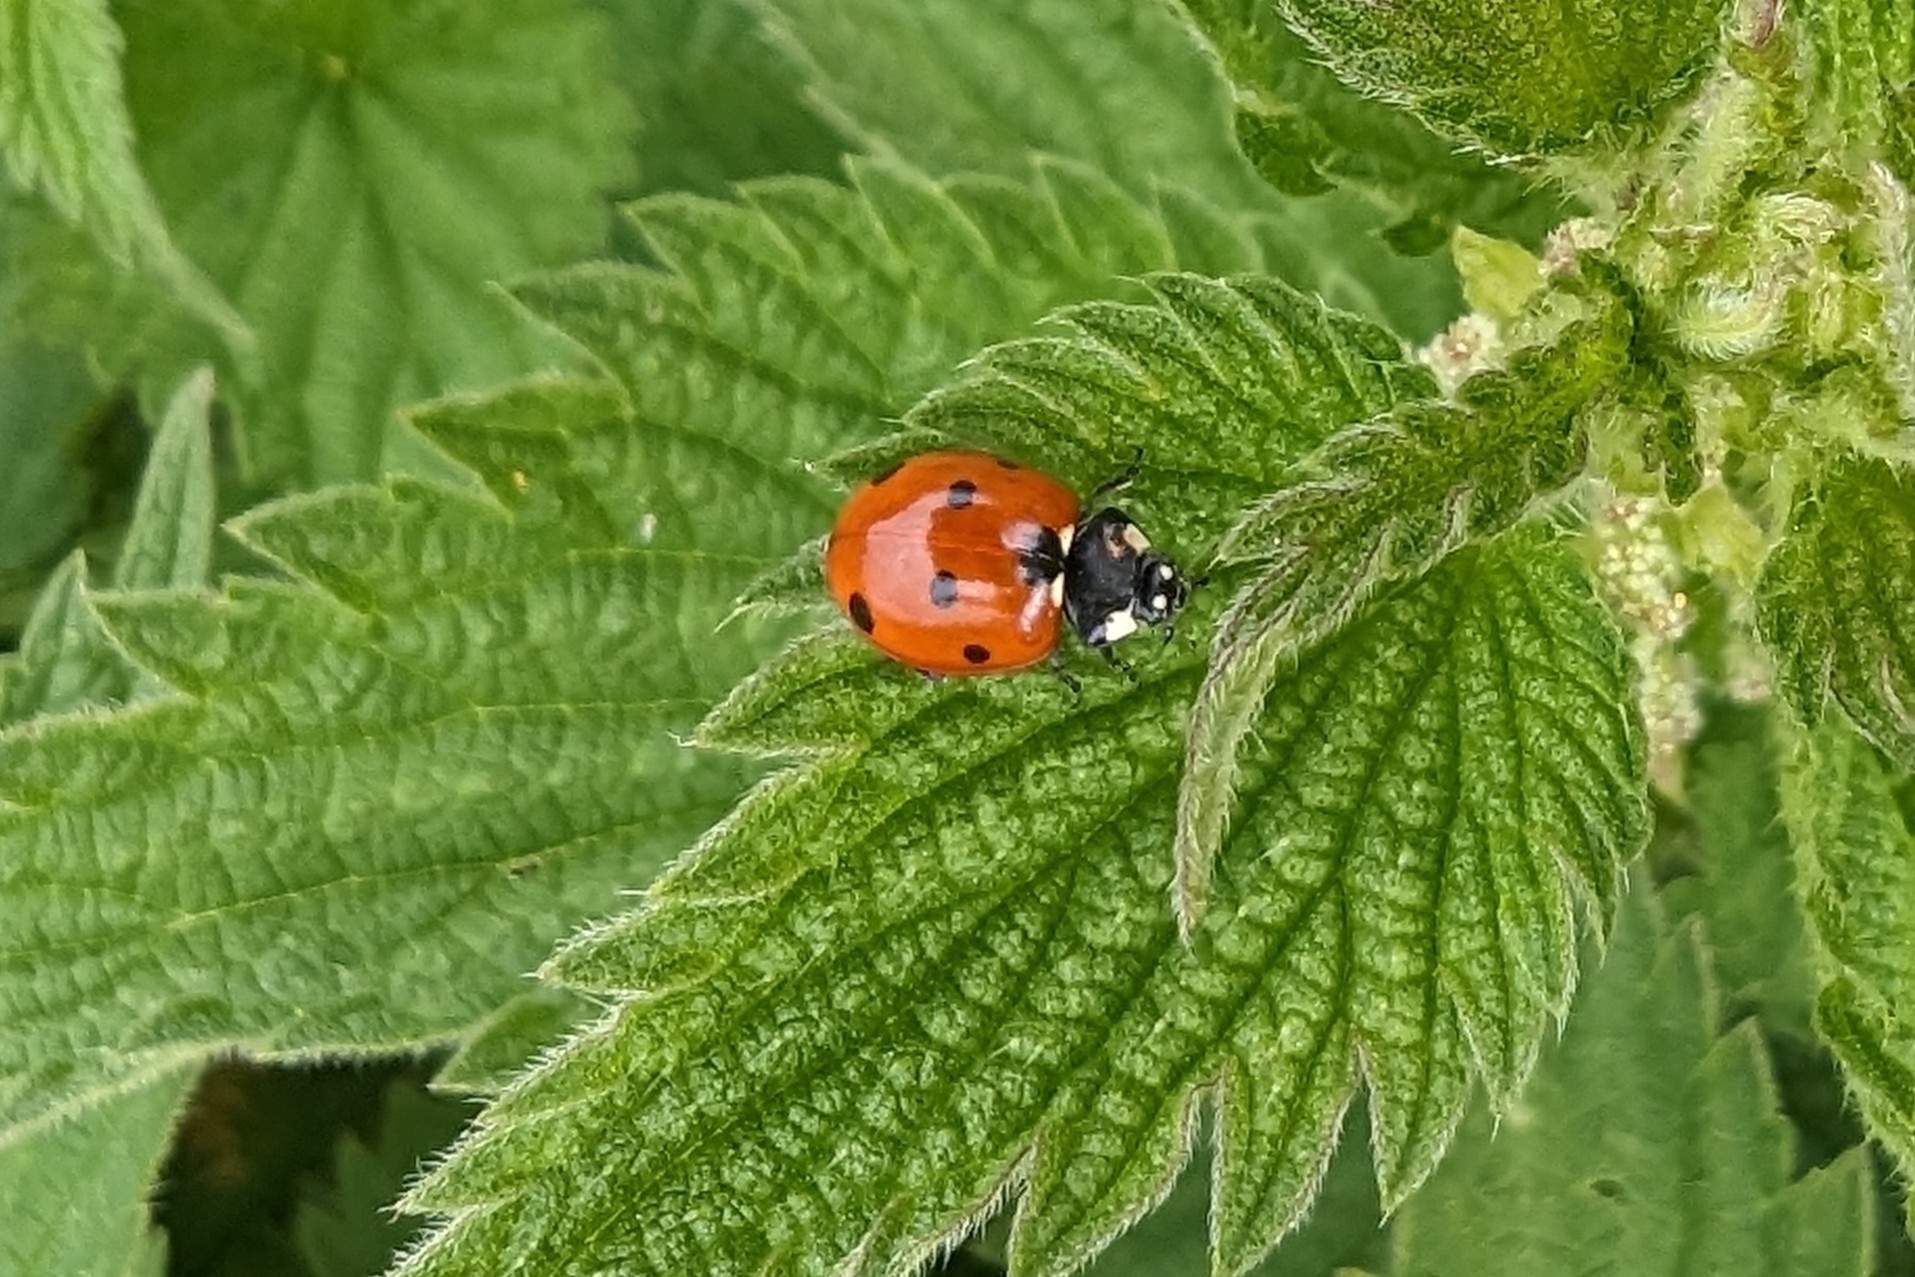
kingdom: Animalia
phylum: Arthropoda
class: Insecta
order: Coleoptera
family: Coccinellidae
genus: Coccinella
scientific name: Coccinella septempunctata
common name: Sevenspotted lady beetle
